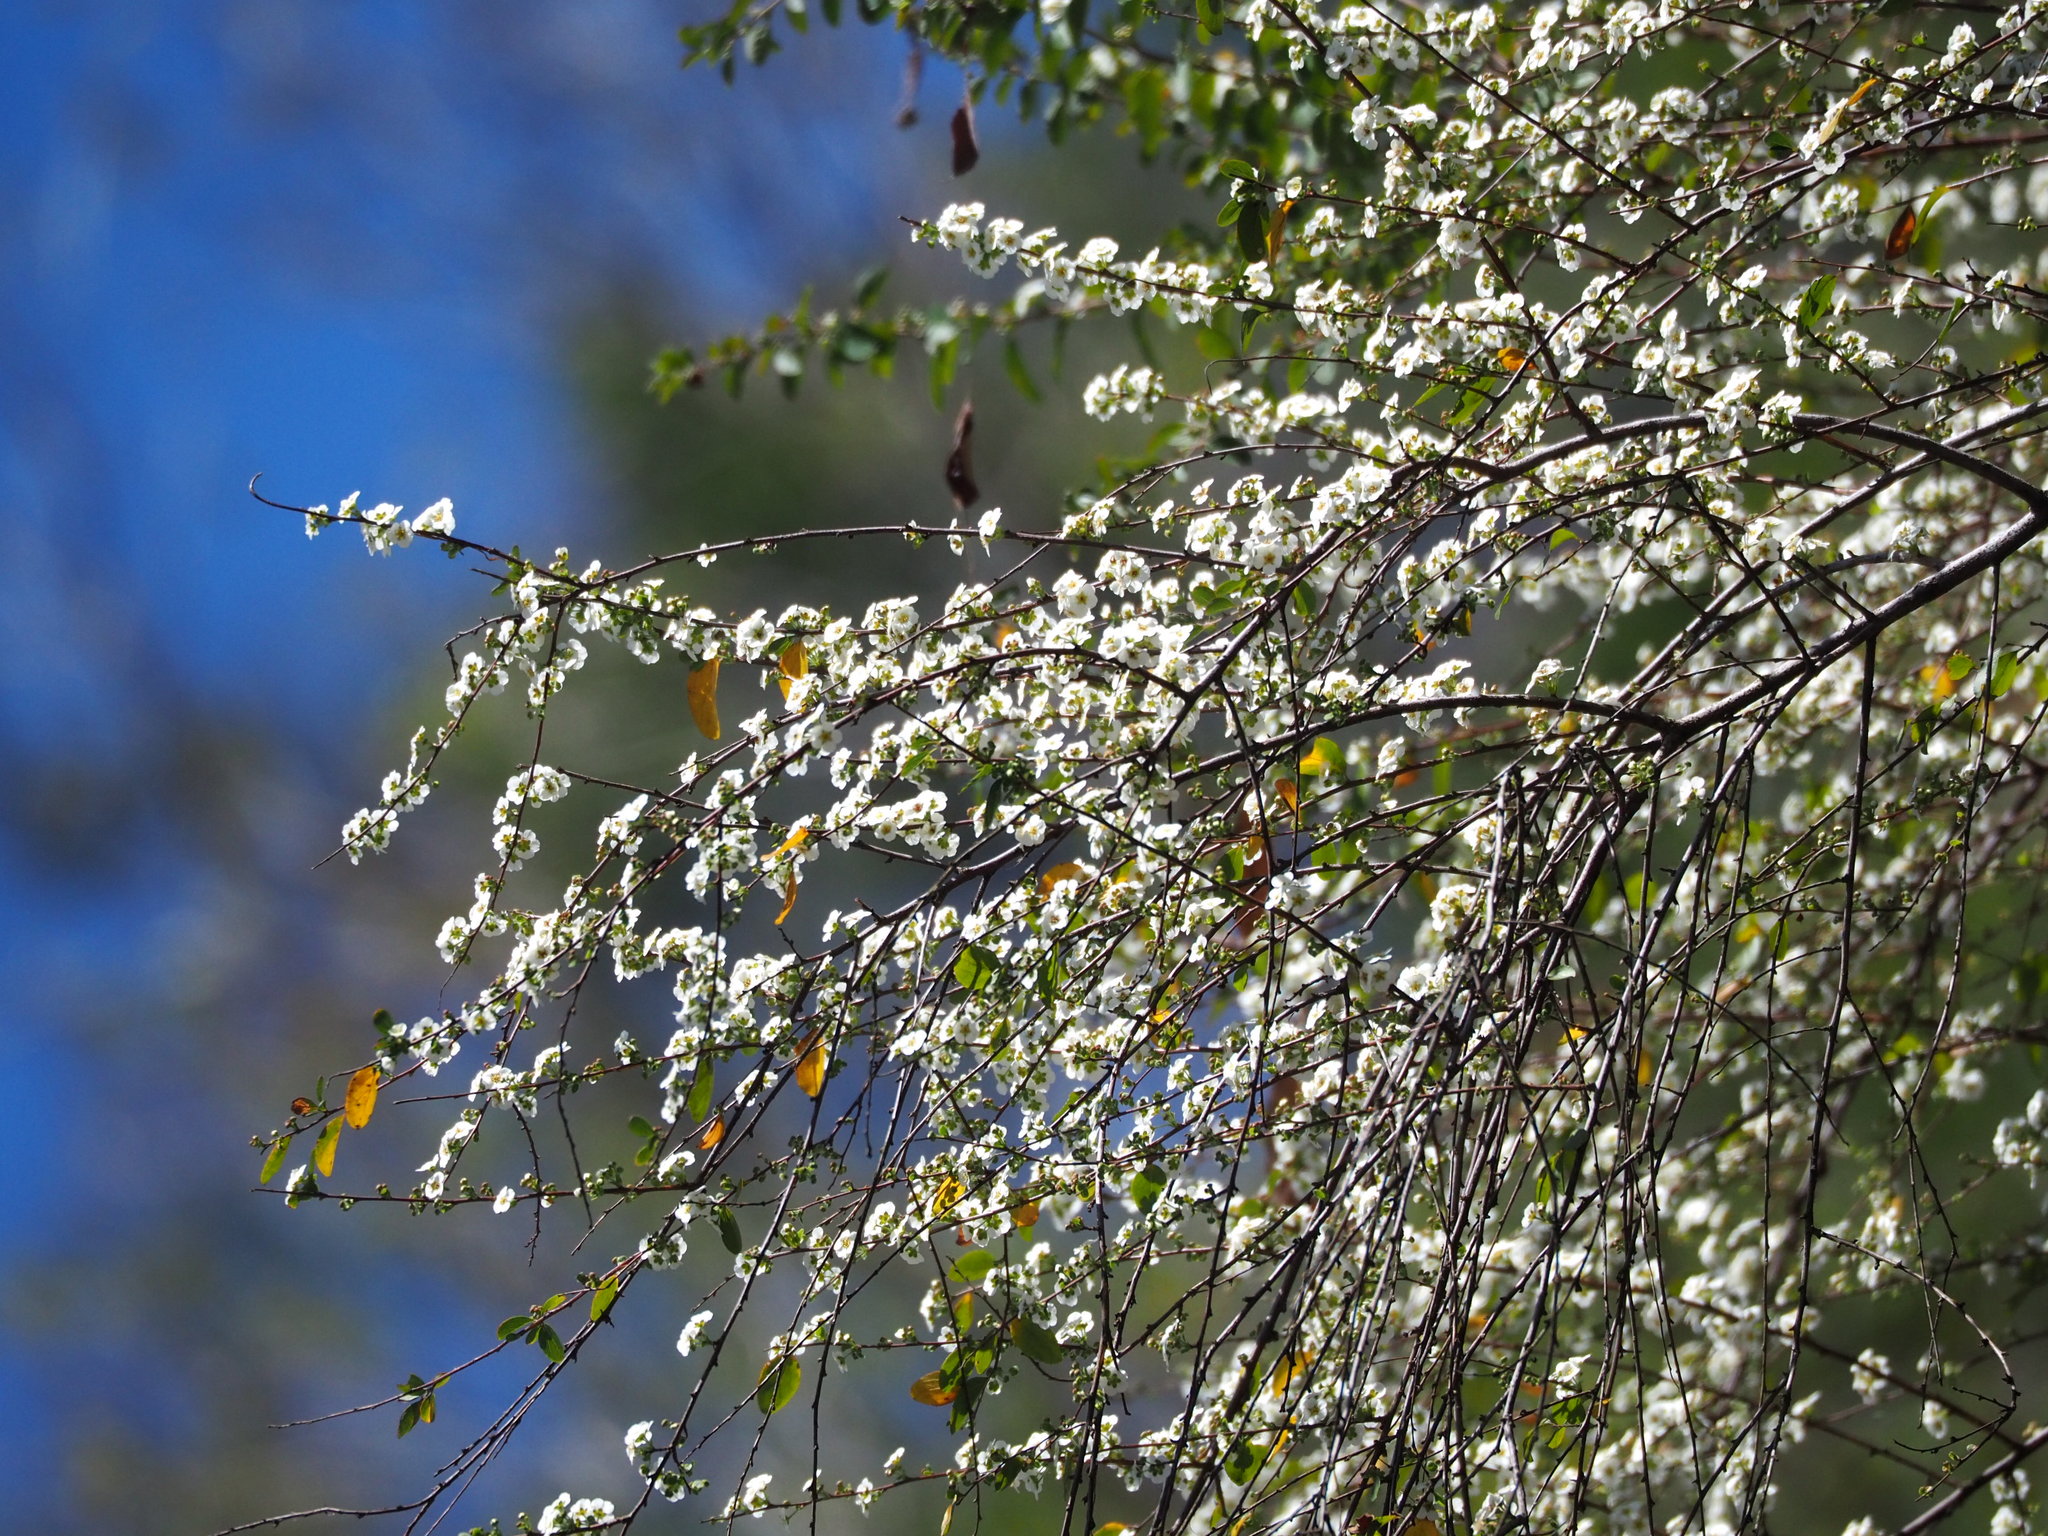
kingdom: Plantae
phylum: Tracheophyta
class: Magnoliopsida
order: Rosales
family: Rosaceae
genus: Spiraea
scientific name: Spiraea prunifolia
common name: Bridal-wreath spiraea
